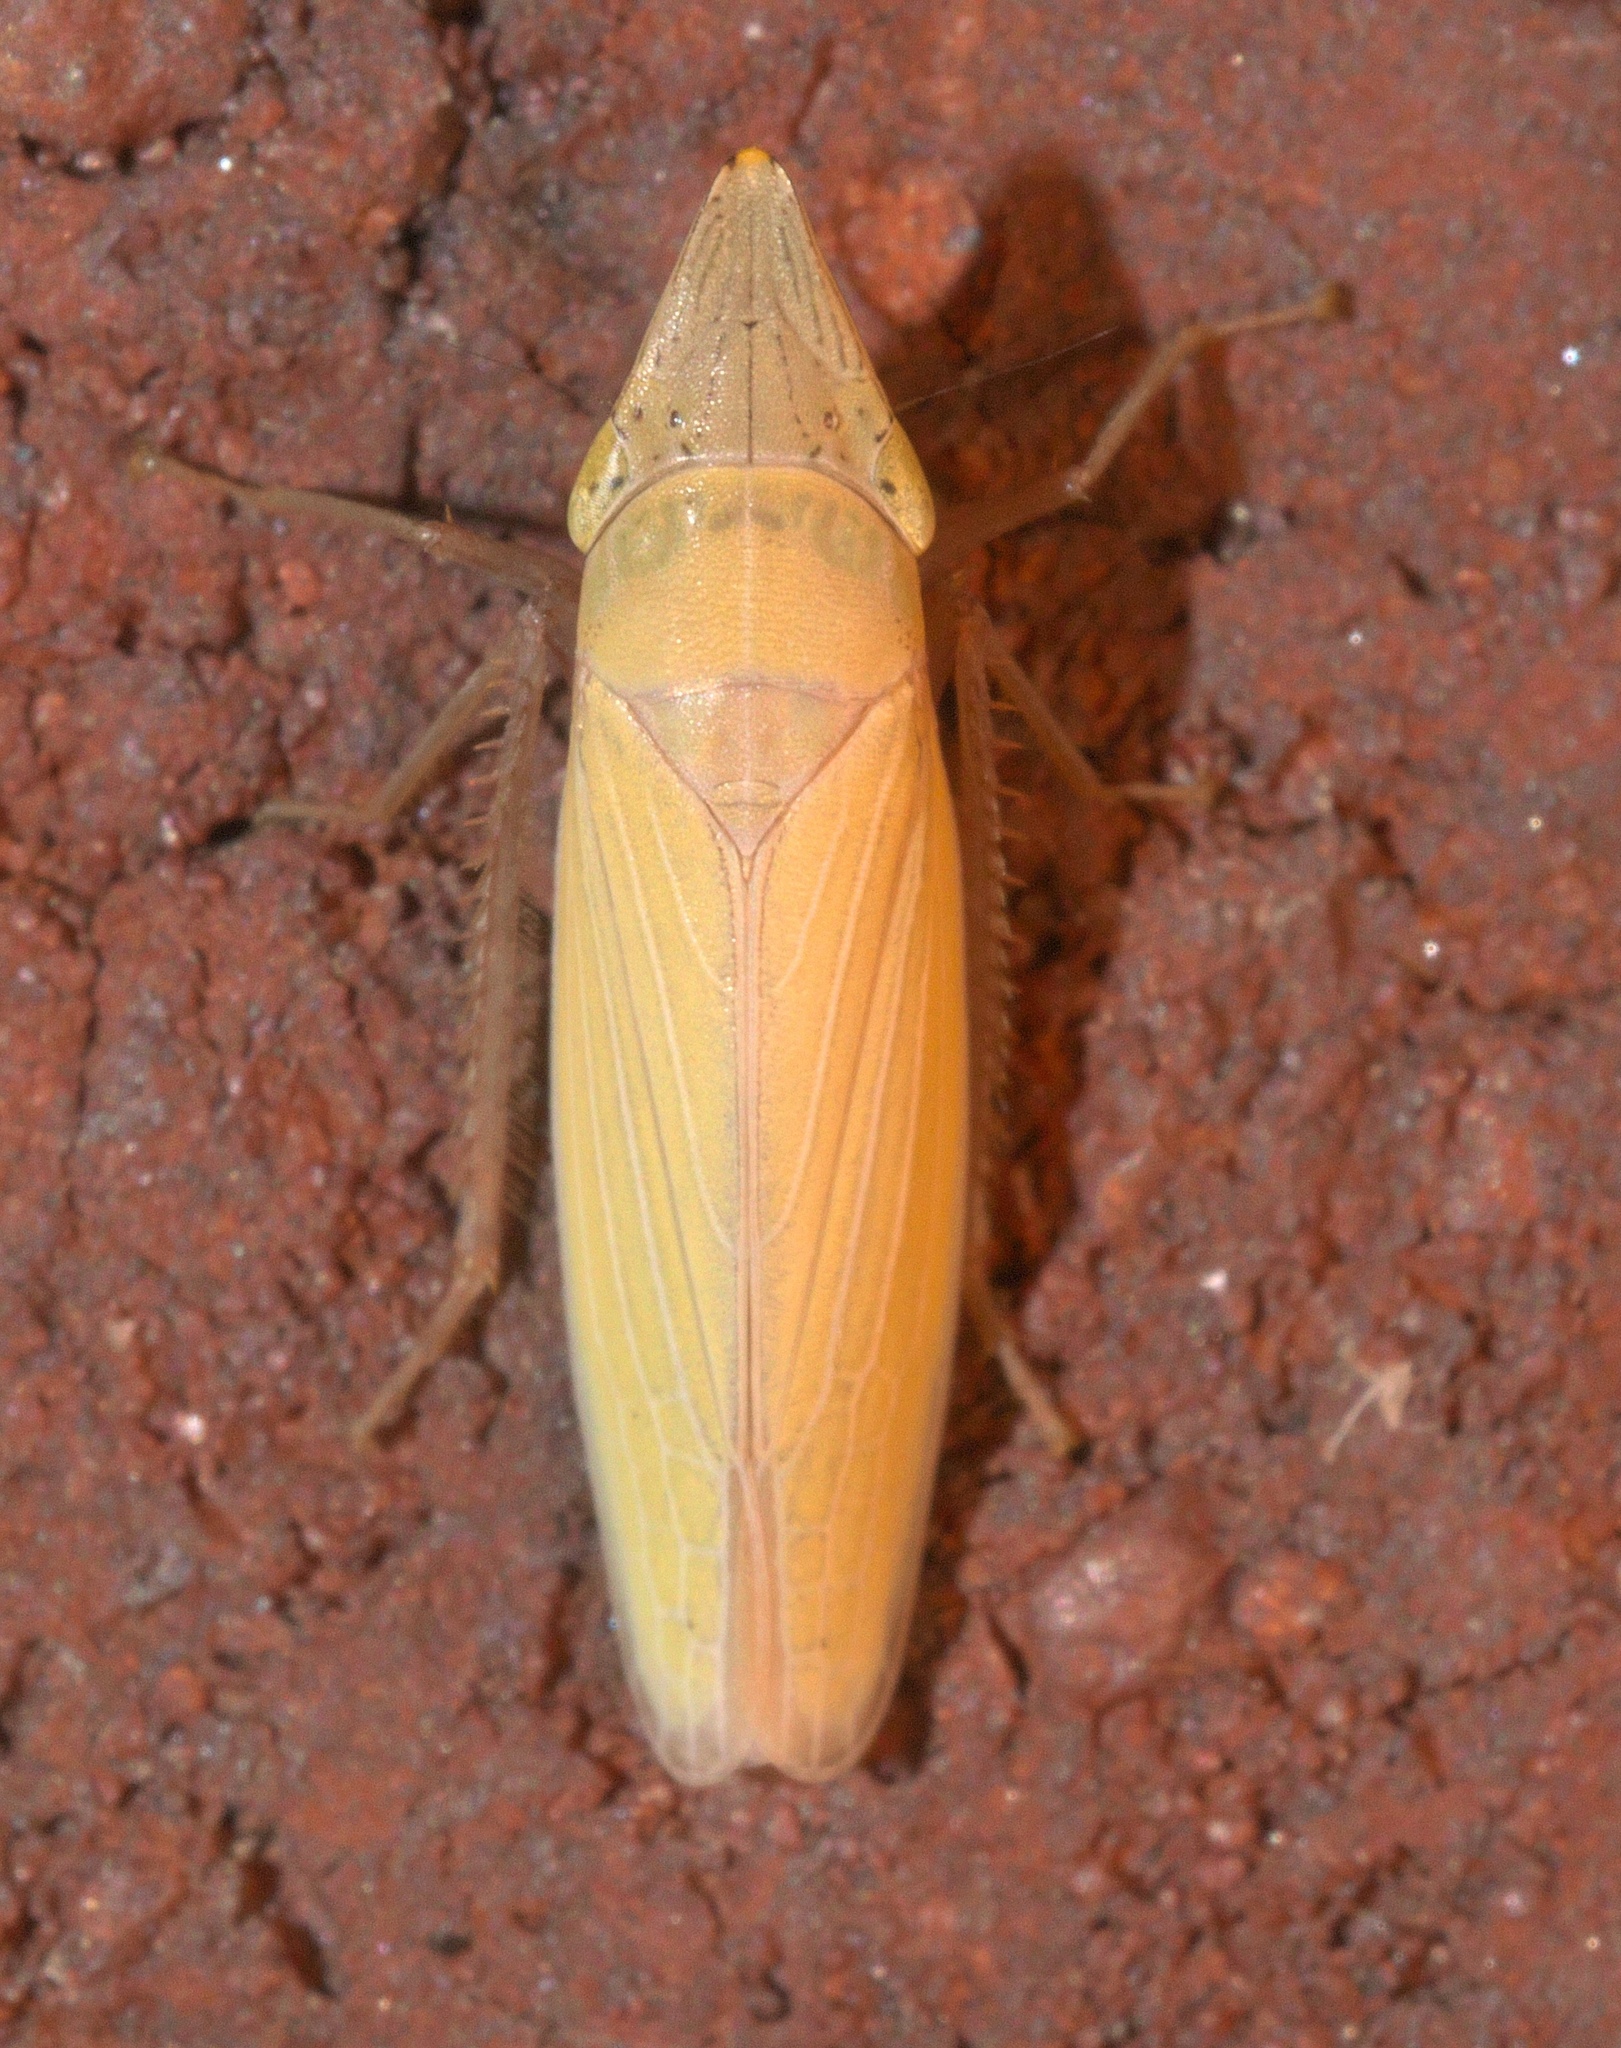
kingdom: Animalia
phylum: Arthropoda
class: Insecta
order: Hemiptera
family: Cicadellidae
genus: Draeculacephala
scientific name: Draeculacephala antica
